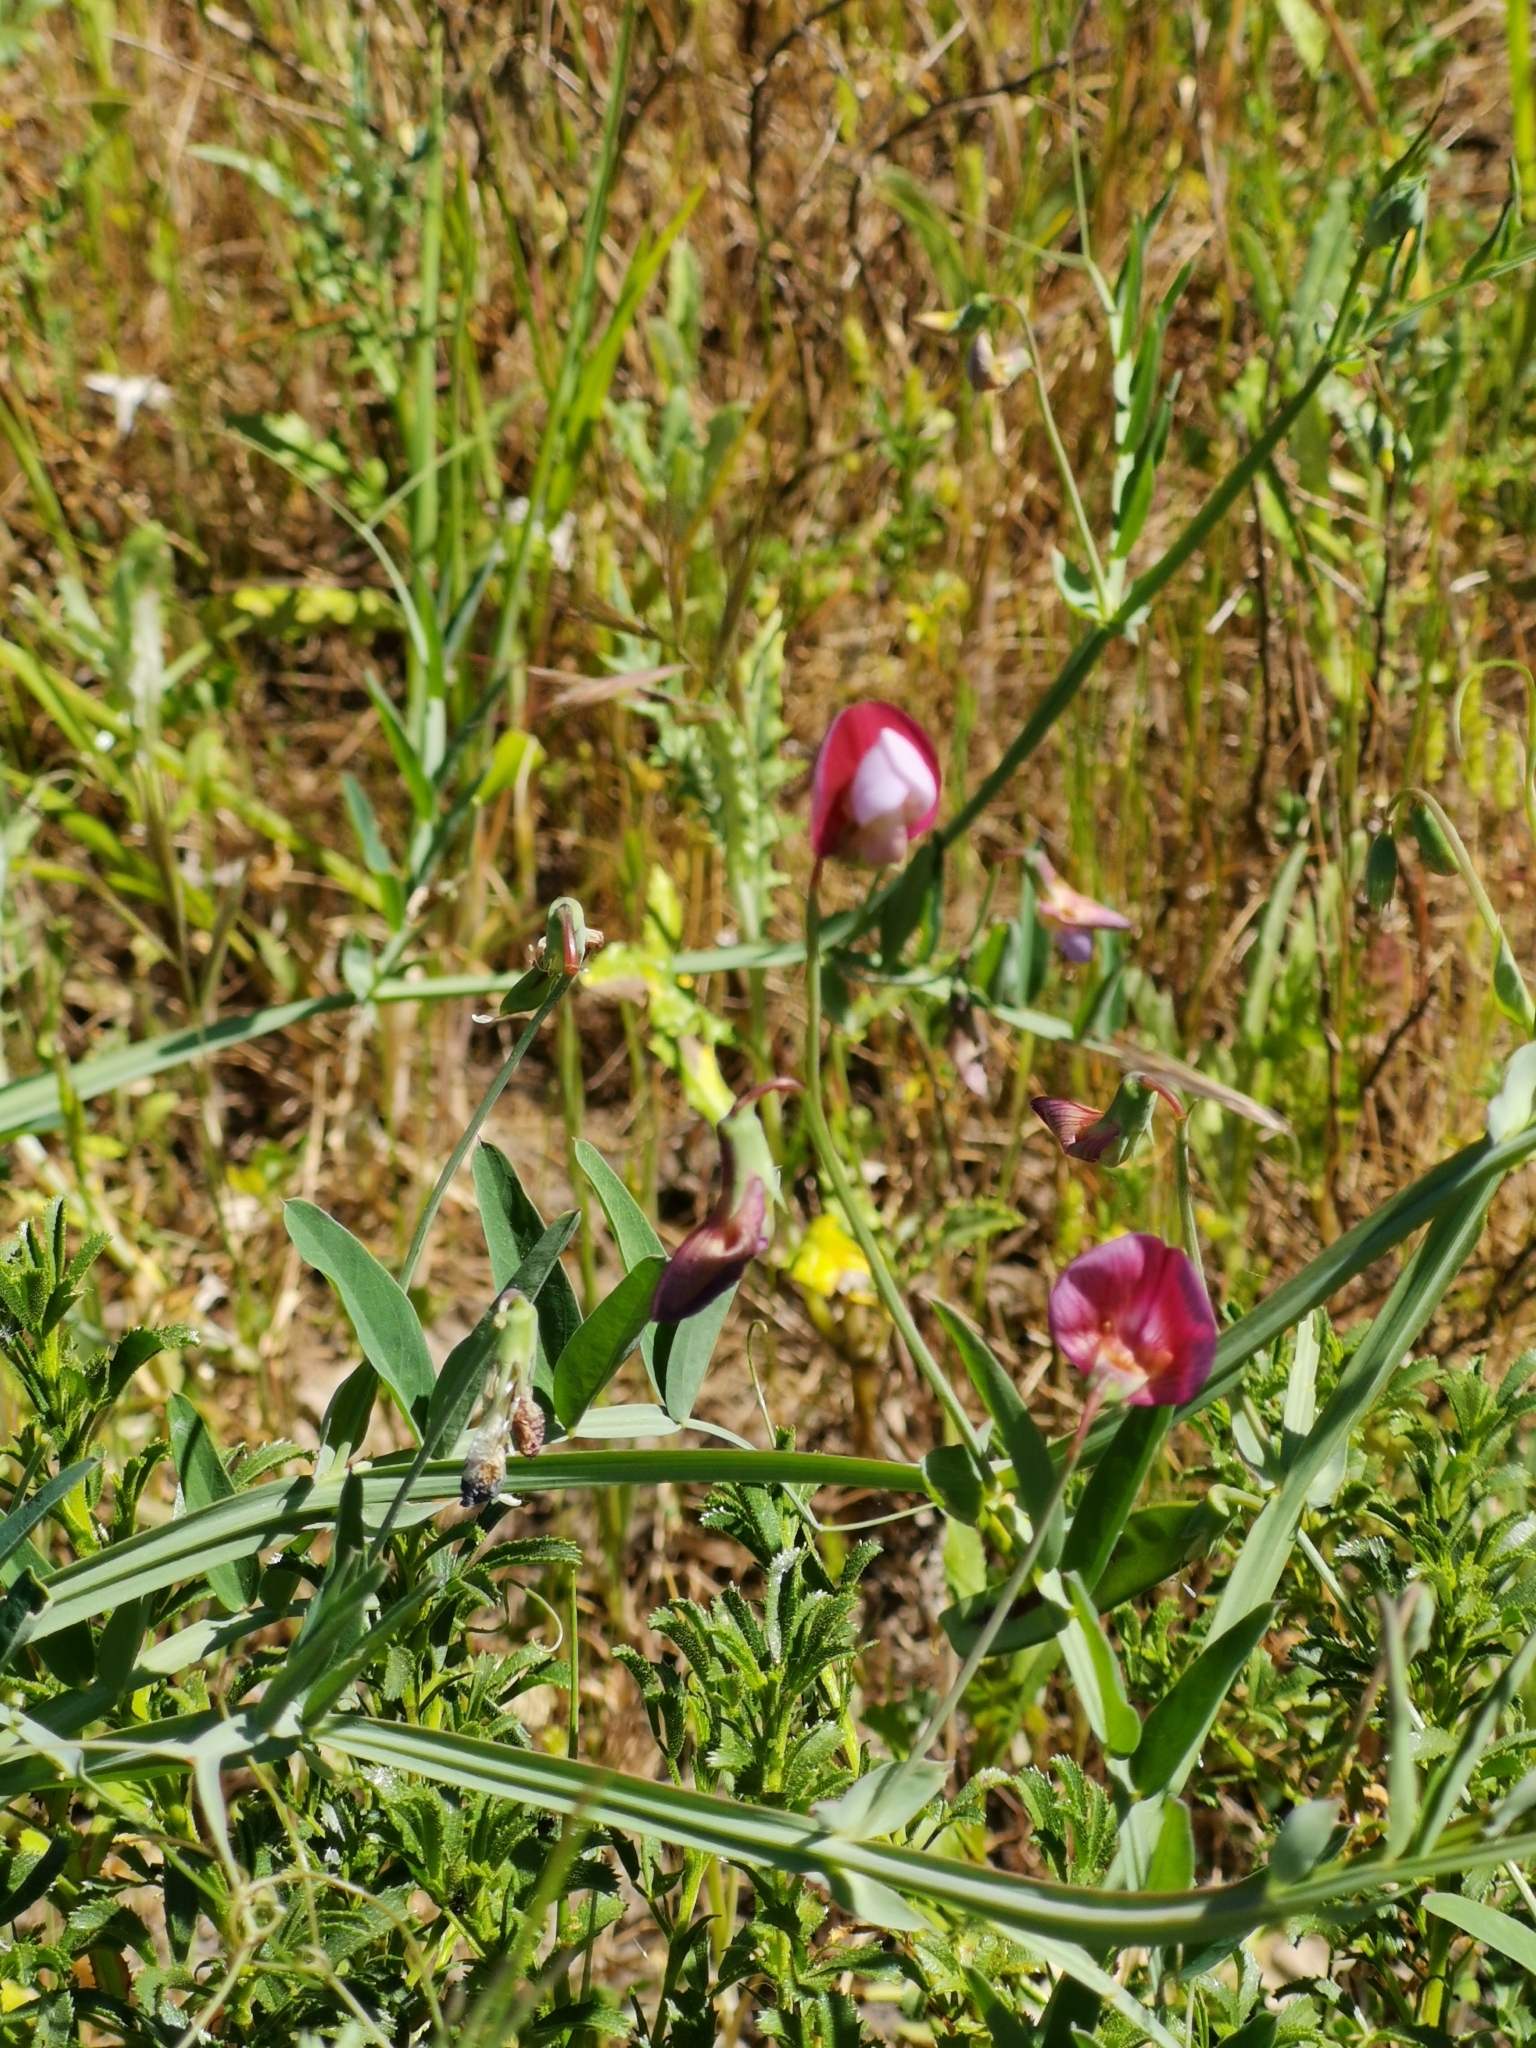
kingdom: Plantae
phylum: Tracheophyta
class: Magnoliopsida
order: Fabales
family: Fabaceae
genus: Lathyrus
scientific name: Lathyrus clymenum
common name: Spanish vetchling
